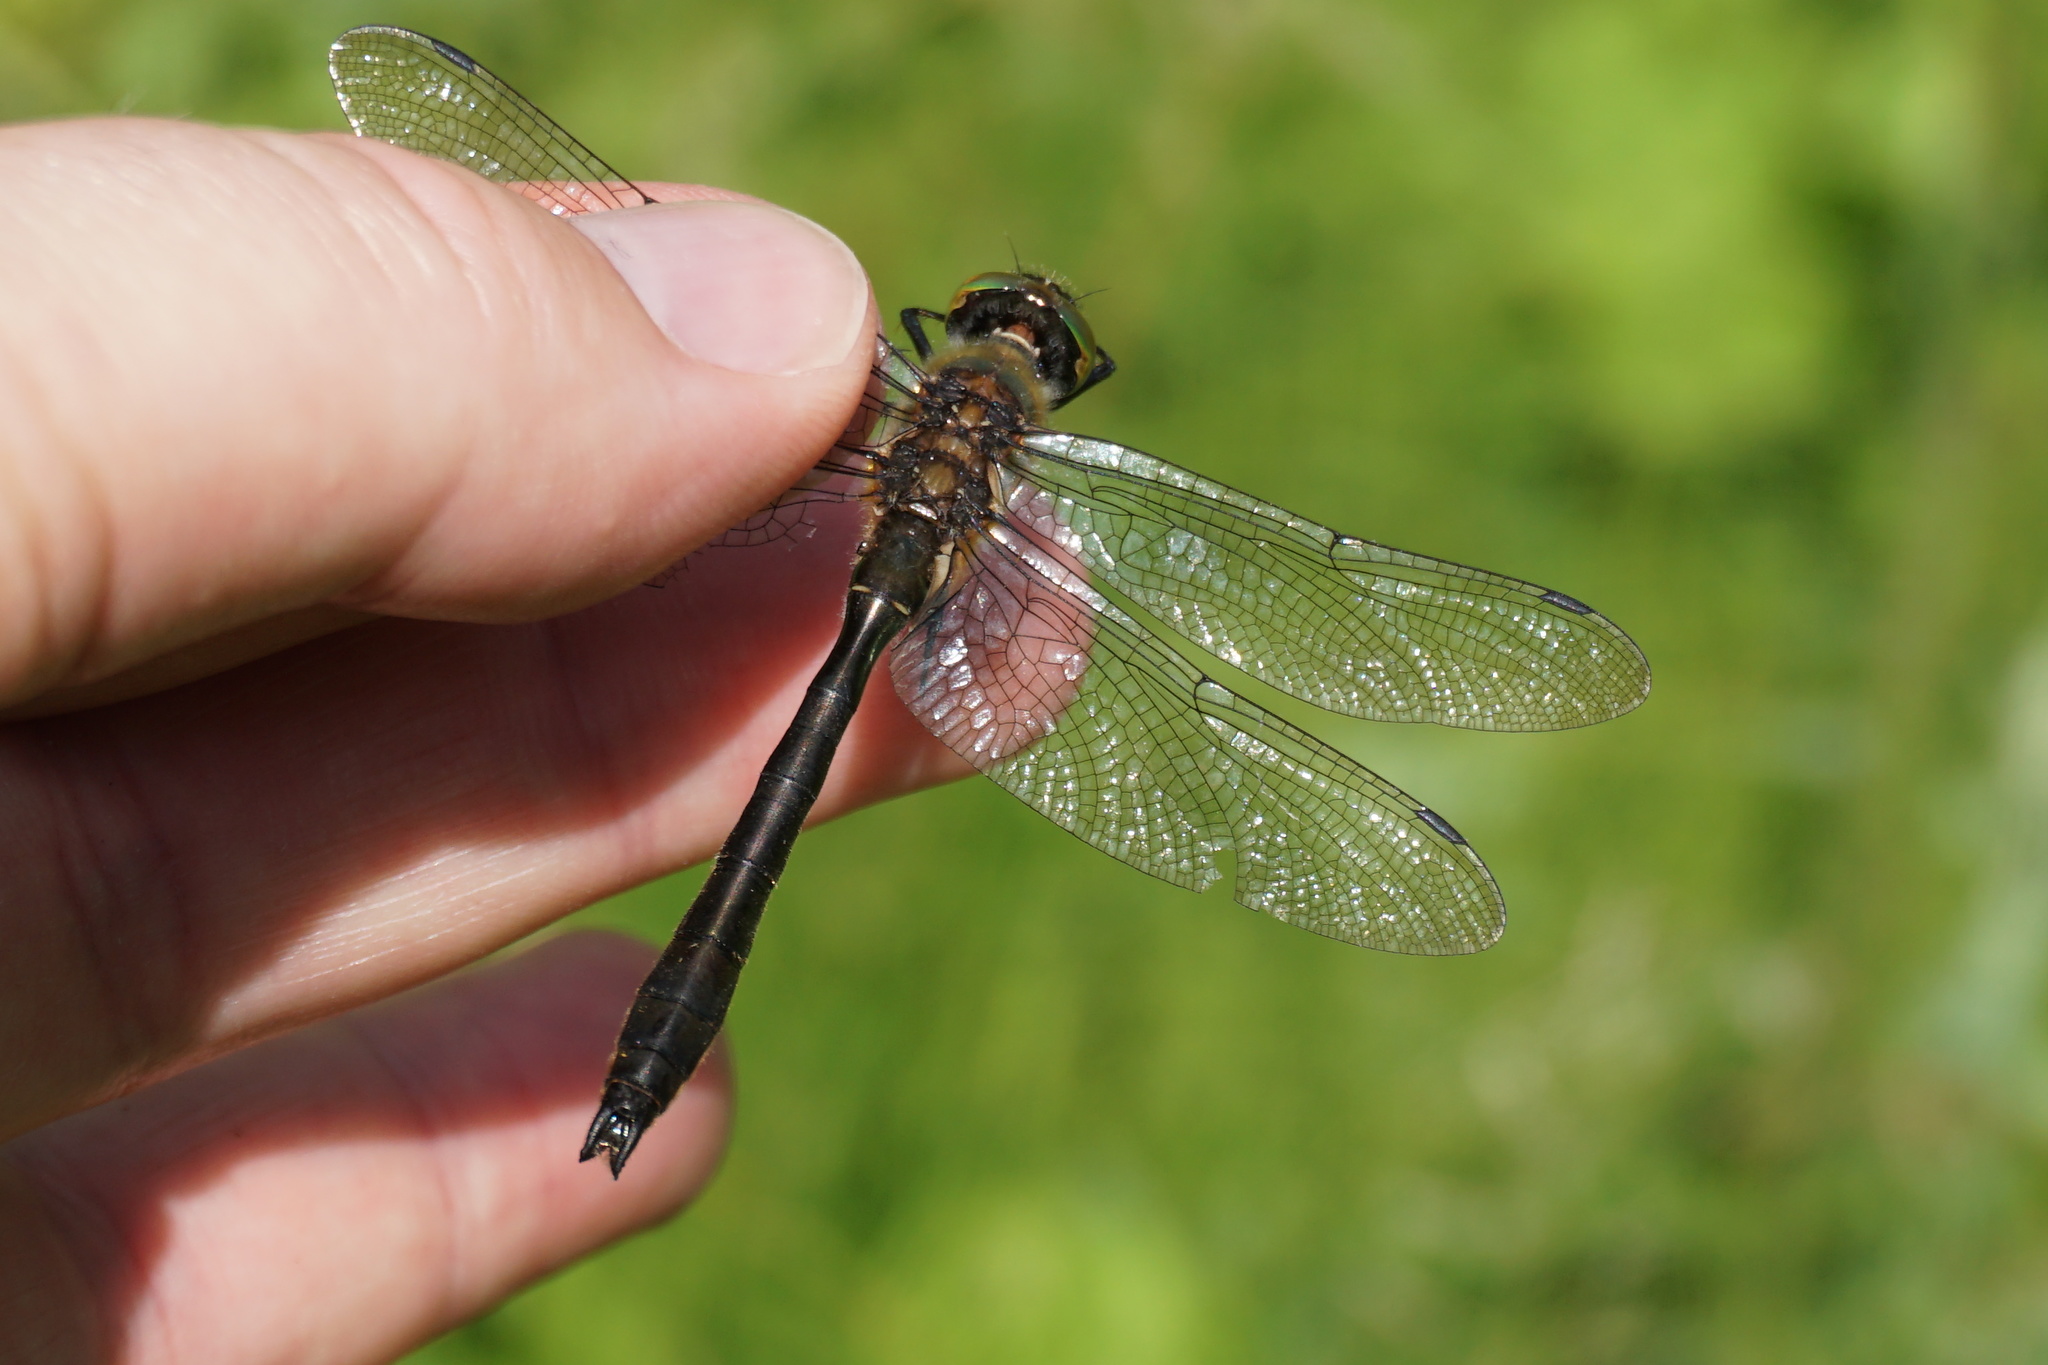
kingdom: Animalia
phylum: Arthropoda
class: Insecta
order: Odonata
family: Corduliidae
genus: Cordulia
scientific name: Cordulia aenea
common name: Downy emerald
